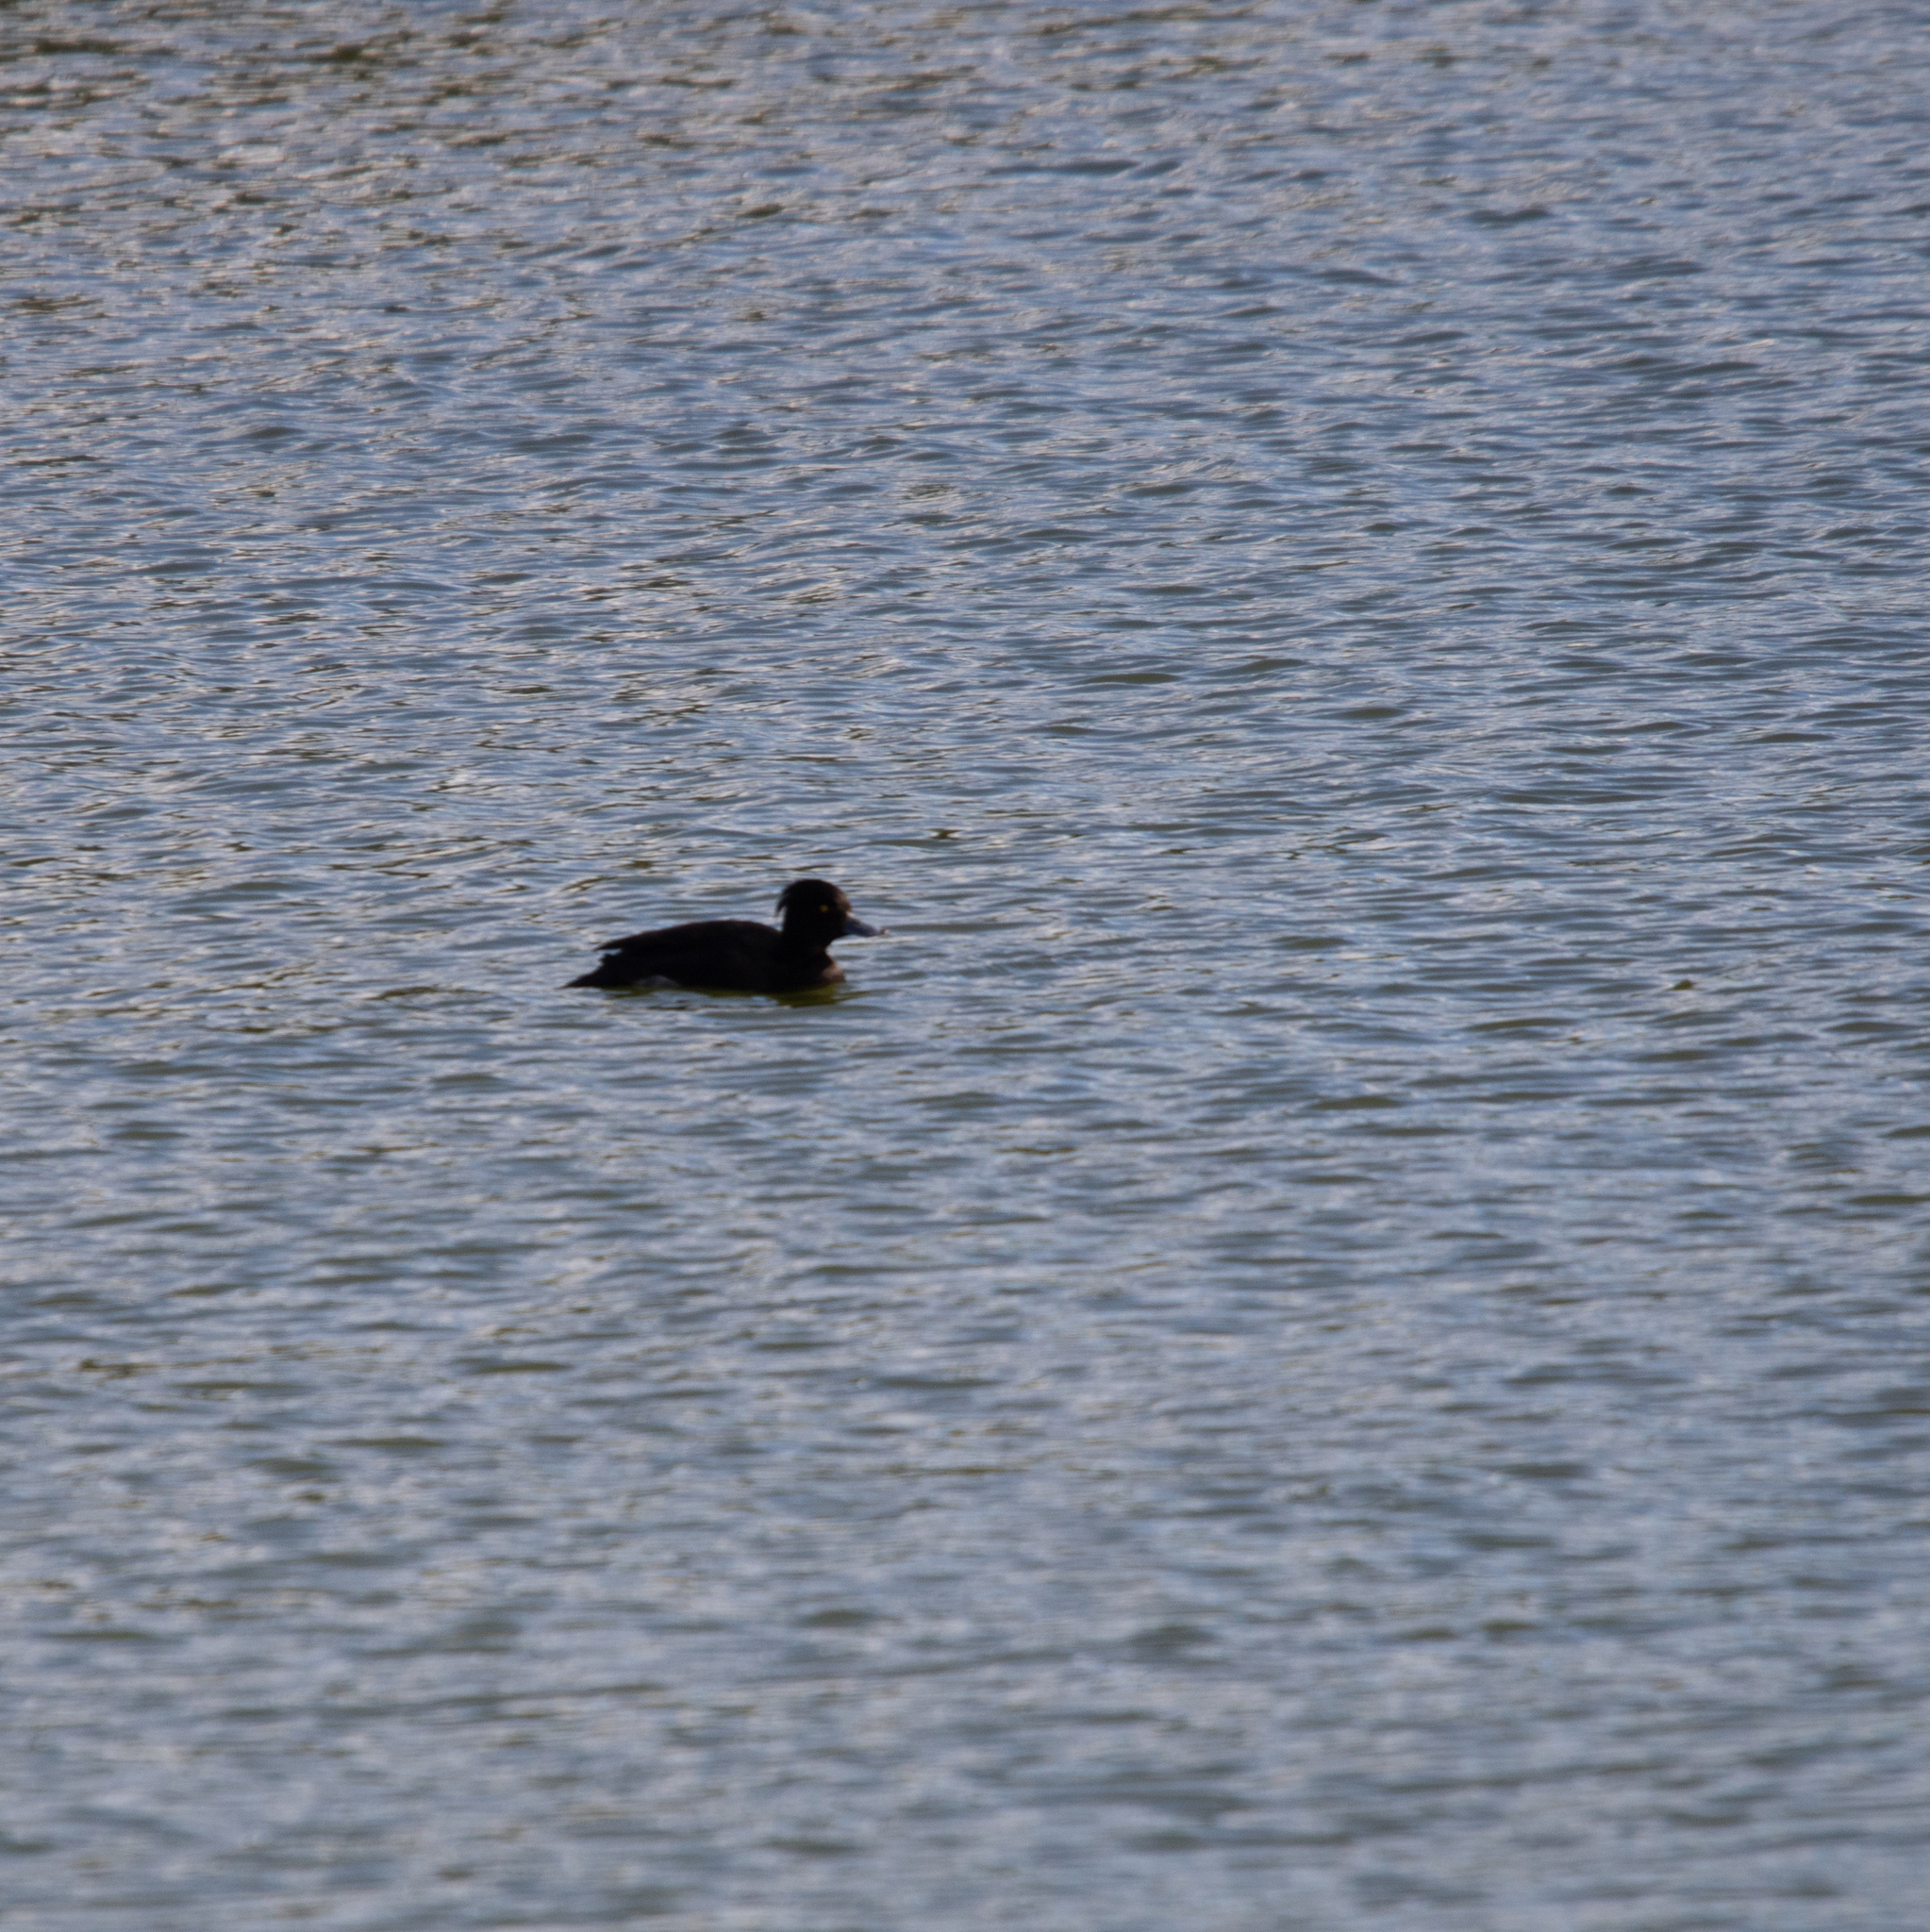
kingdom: Animalia
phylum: Chordata
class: Aves
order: Anseriformes
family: Anatidae
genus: Aythya
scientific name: Aythya fuligula
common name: Tufted duck
